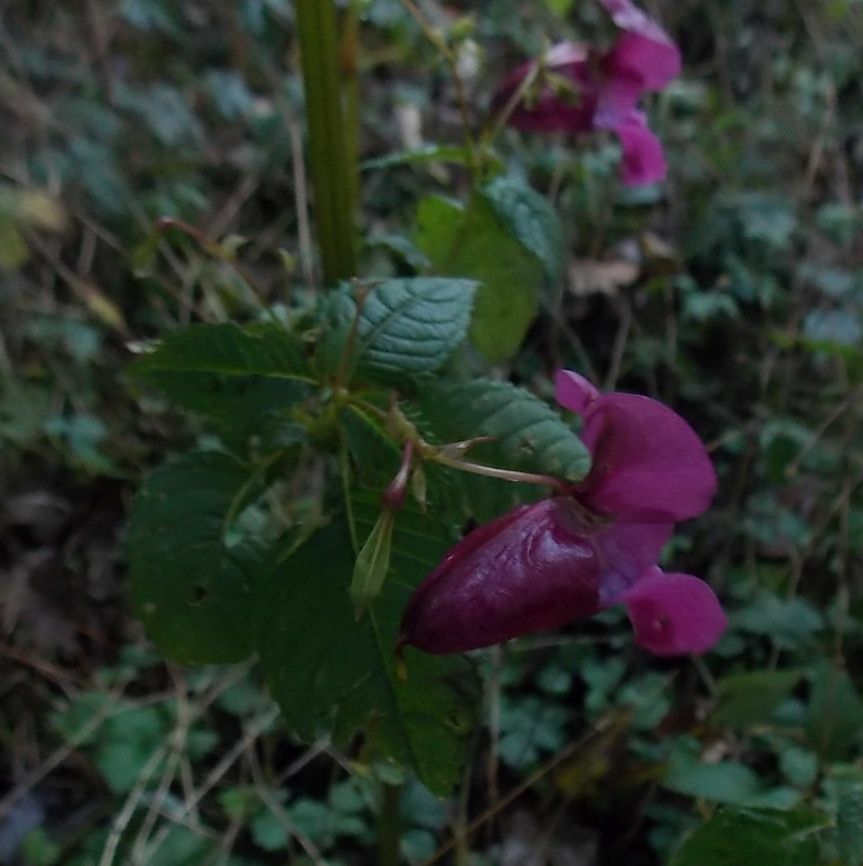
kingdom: Plantae
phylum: Tracheophyta
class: Magnoliopsida
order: Ericales
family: Balsaminaceae
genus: Impatiens
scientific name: Impatiens glandulifera
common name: Himalayan balsam
